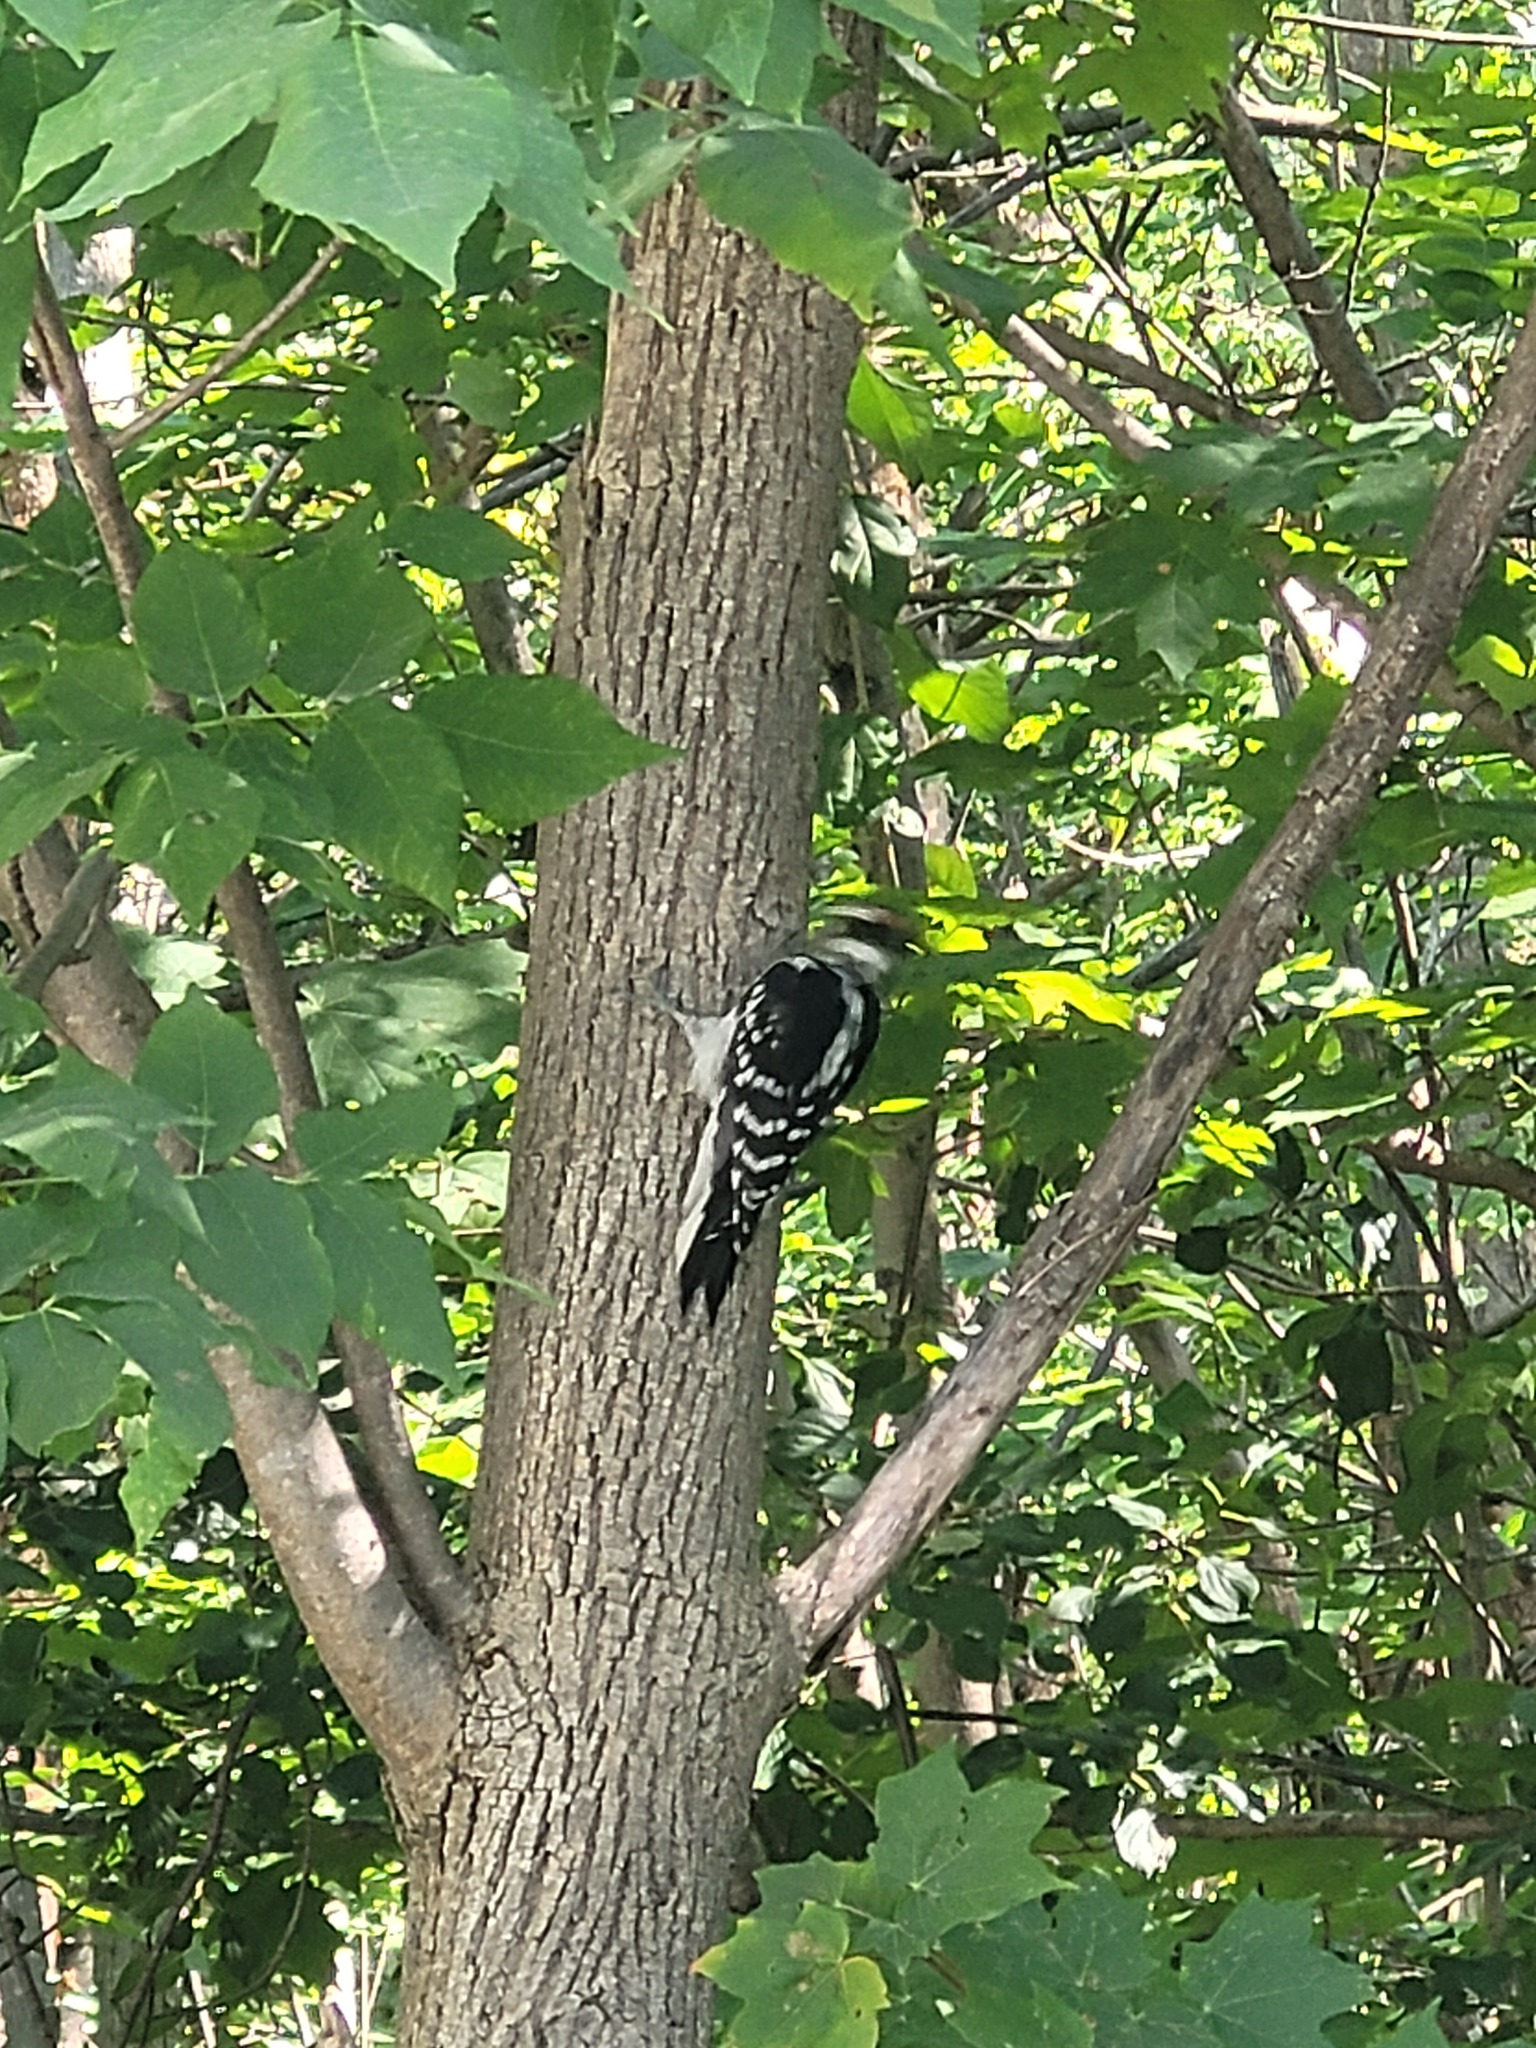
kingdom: Animalia
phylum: Chordata
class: Aves
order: Piciformes
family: Picidae
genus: Leuconotopicus
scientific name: Leuconotopicus villosus
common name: Hairy woodpecker
